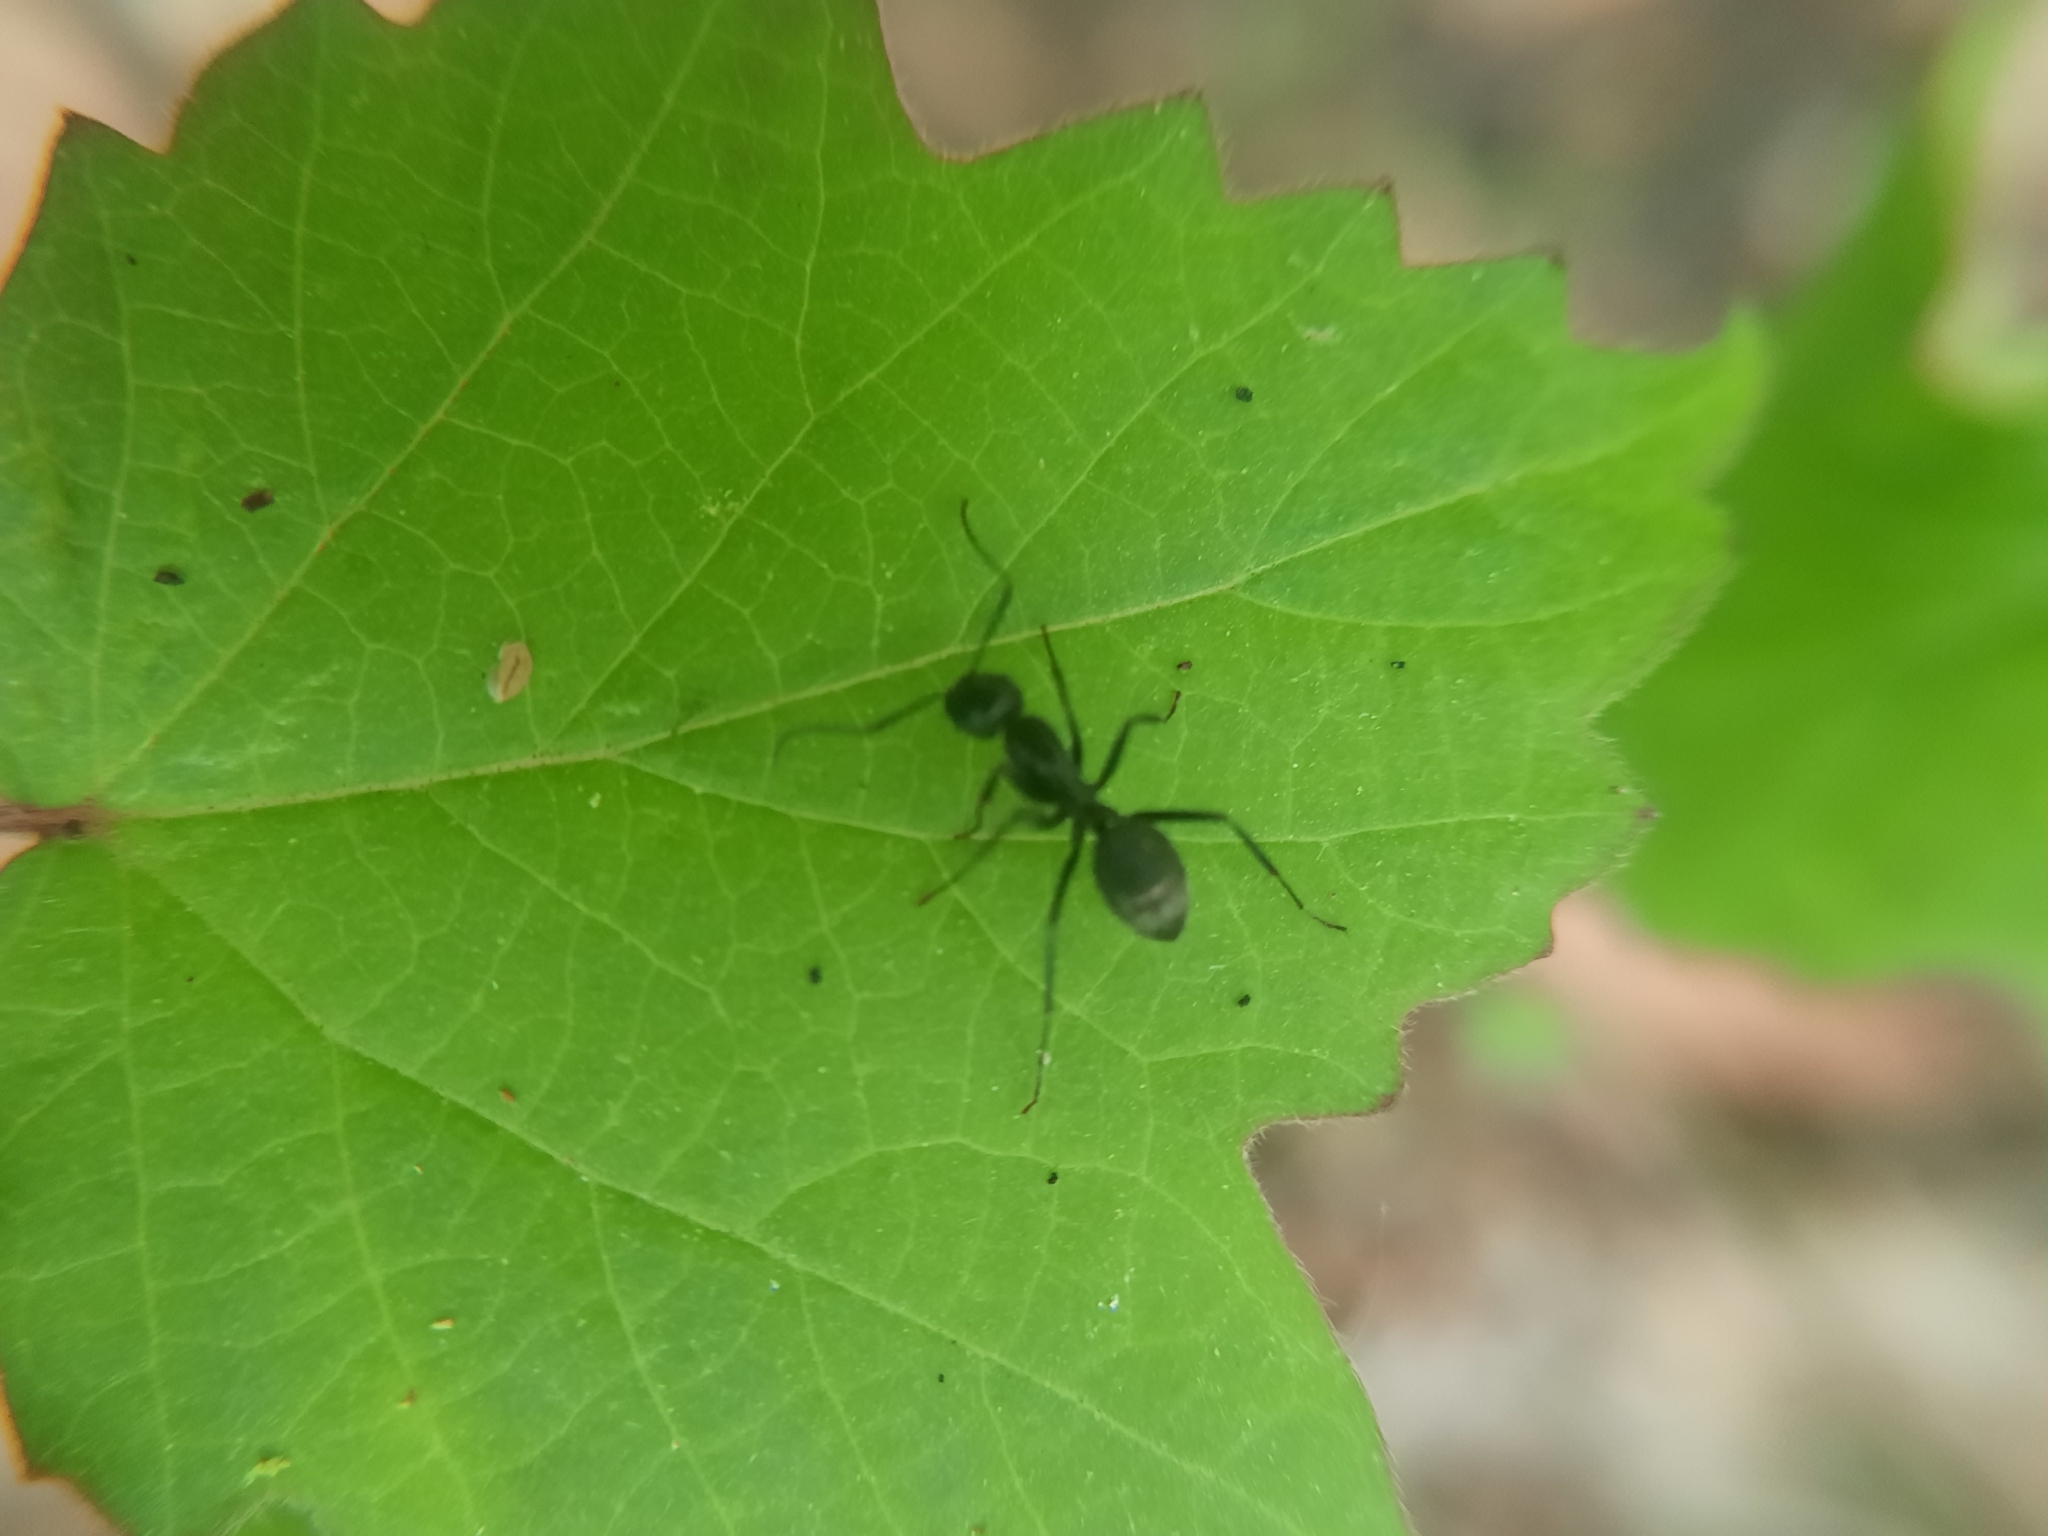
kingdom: Animalia
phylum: Arthropoda
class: Insecta
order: Hymenoptera
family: Formicidae
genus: Camponotus
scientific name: Camponotus pennsylvanicus
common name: Black carpenter ant
